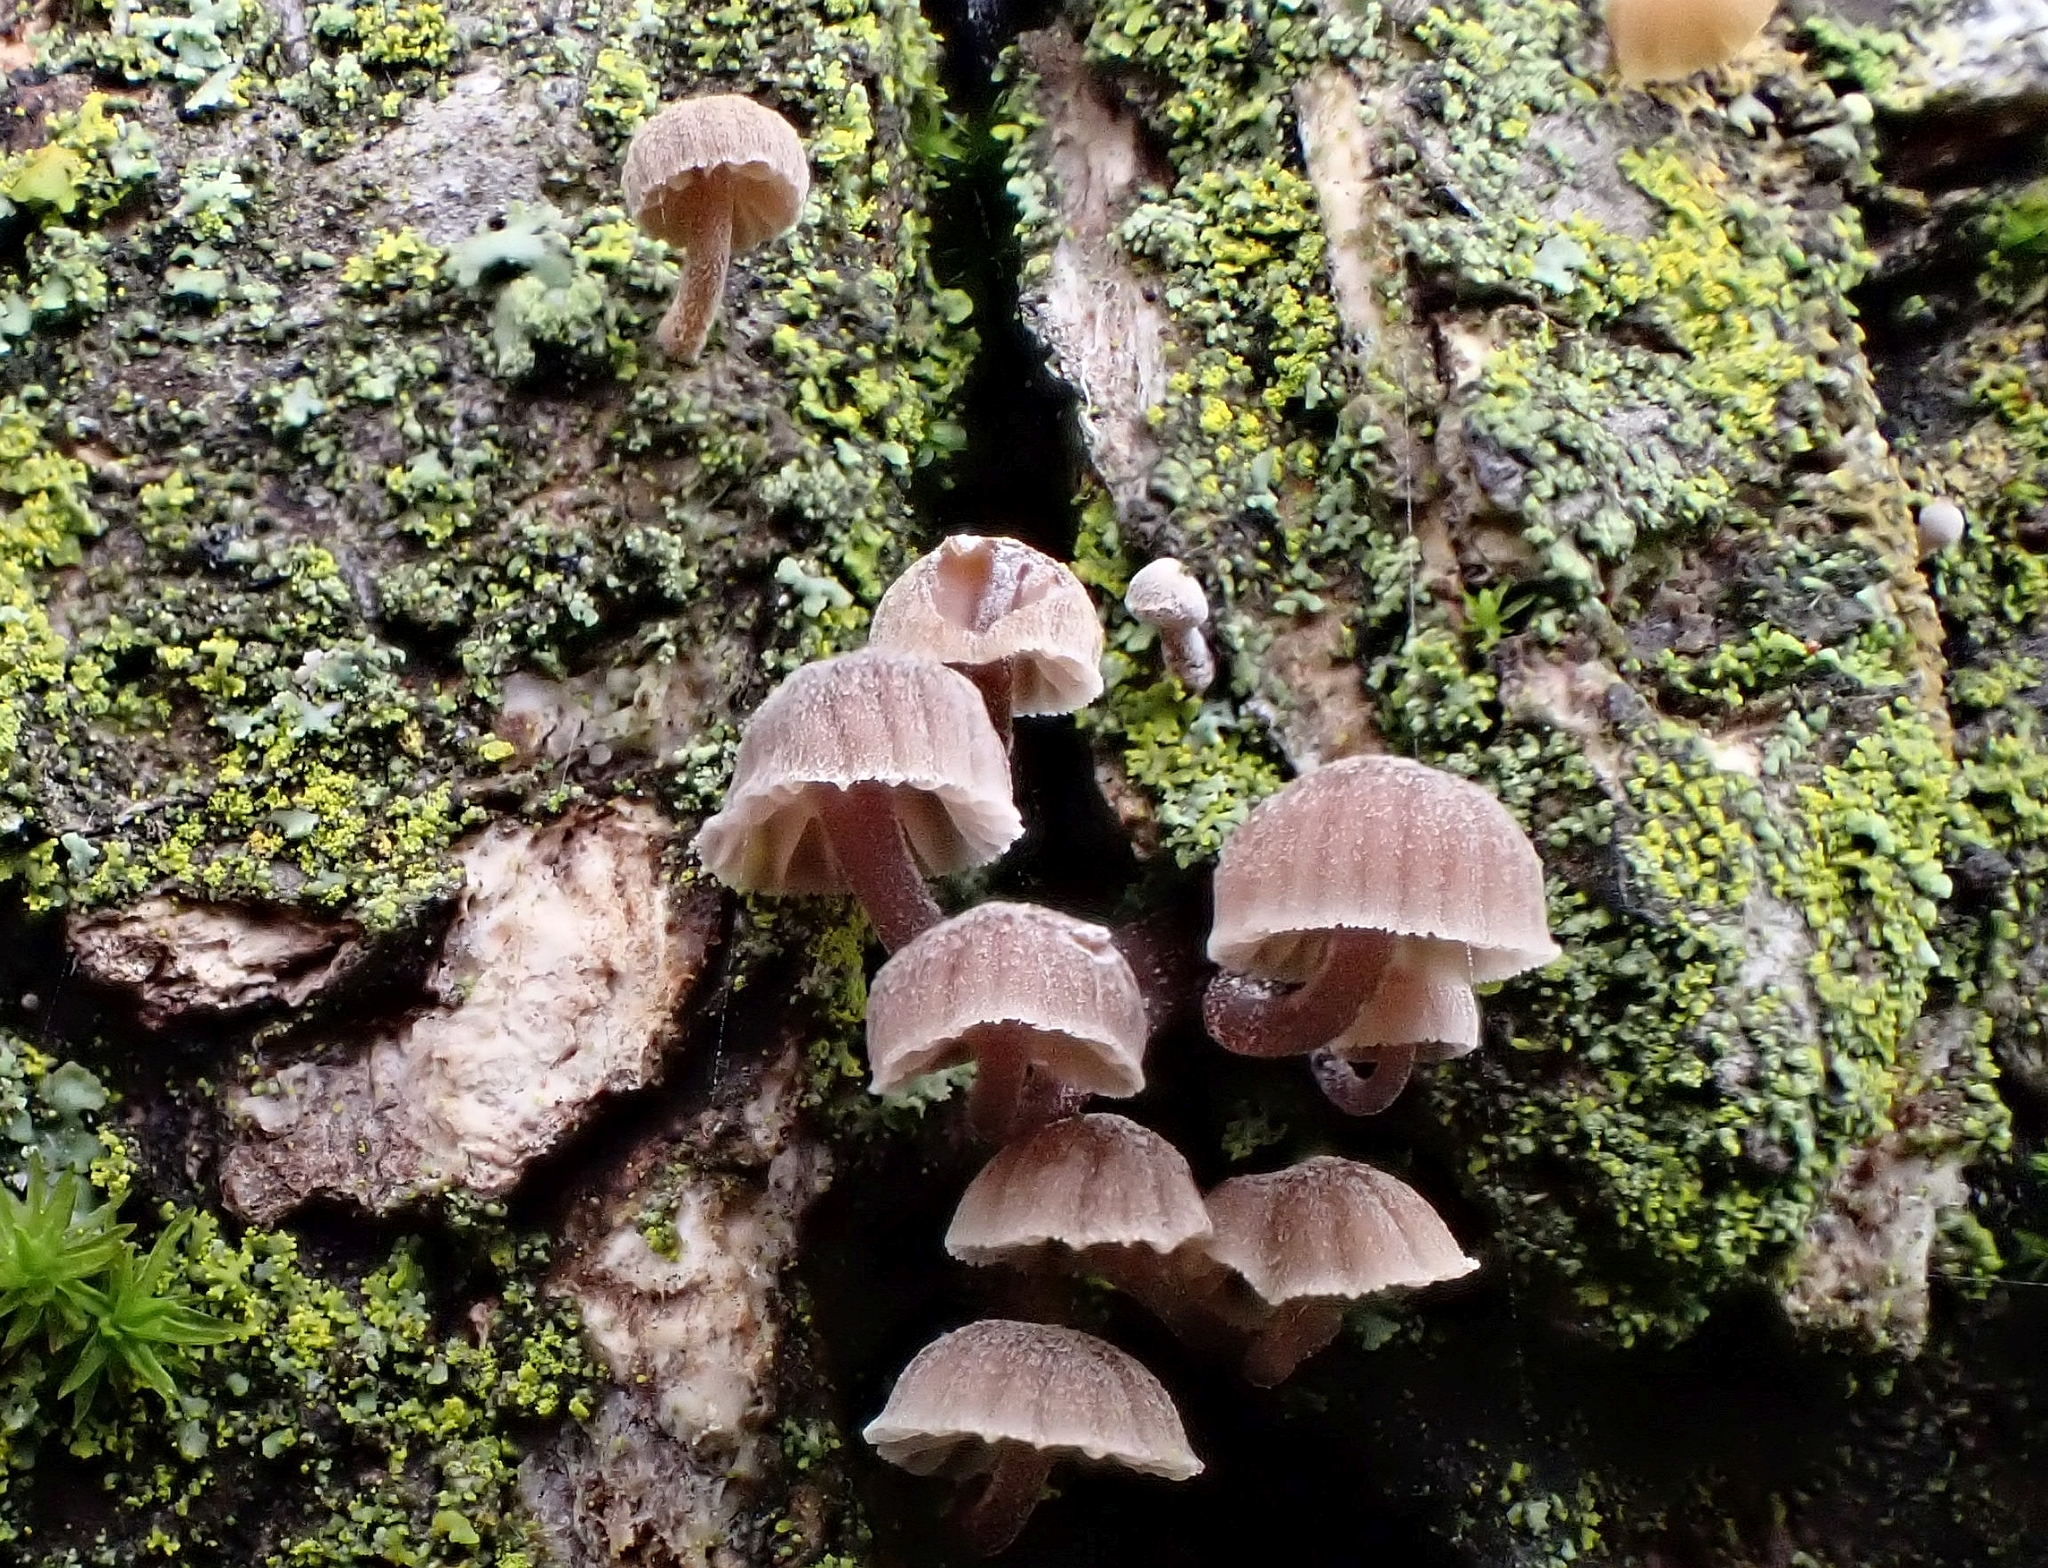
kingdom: Fungi
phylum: Basidiomycota
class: Agaricomycetes
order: Agaricales
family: Mycenaceae
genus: Mycena
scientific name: Mycena meliigena
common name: Mauve bonnet
